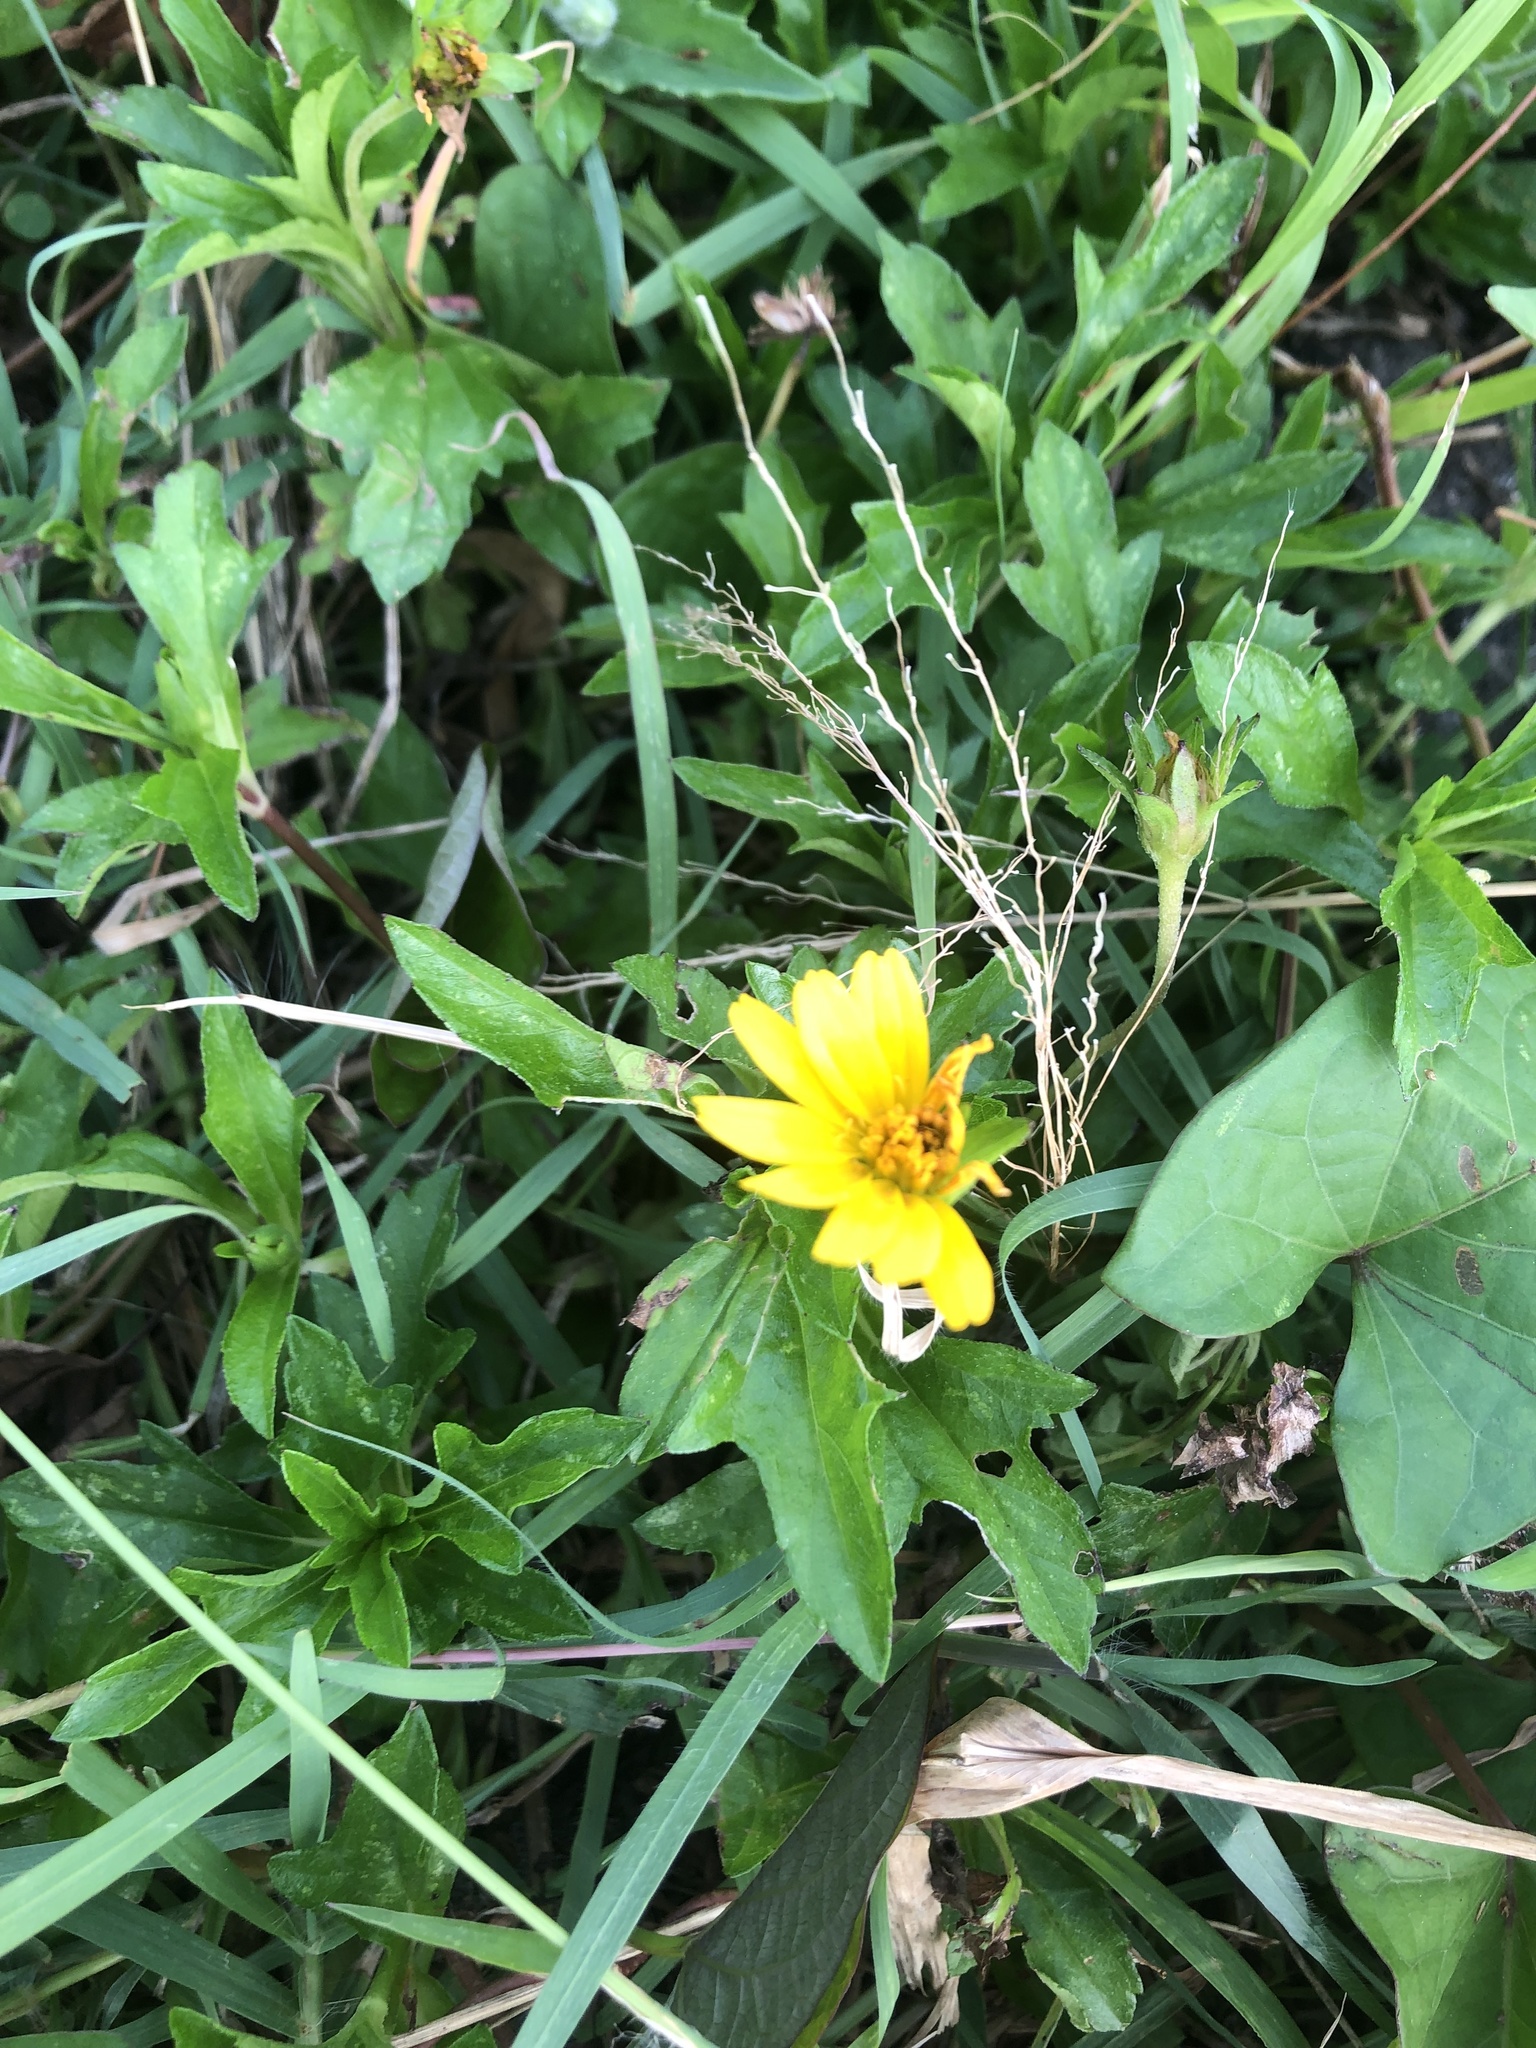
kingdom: Plantae
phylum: Tracheophyta
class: Magnoliopsida
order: Asterales
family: Asteraceae
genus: Sphagneticola
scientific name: Sphagneticola trilobata
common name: Bay biscayne creeping-oxeye
